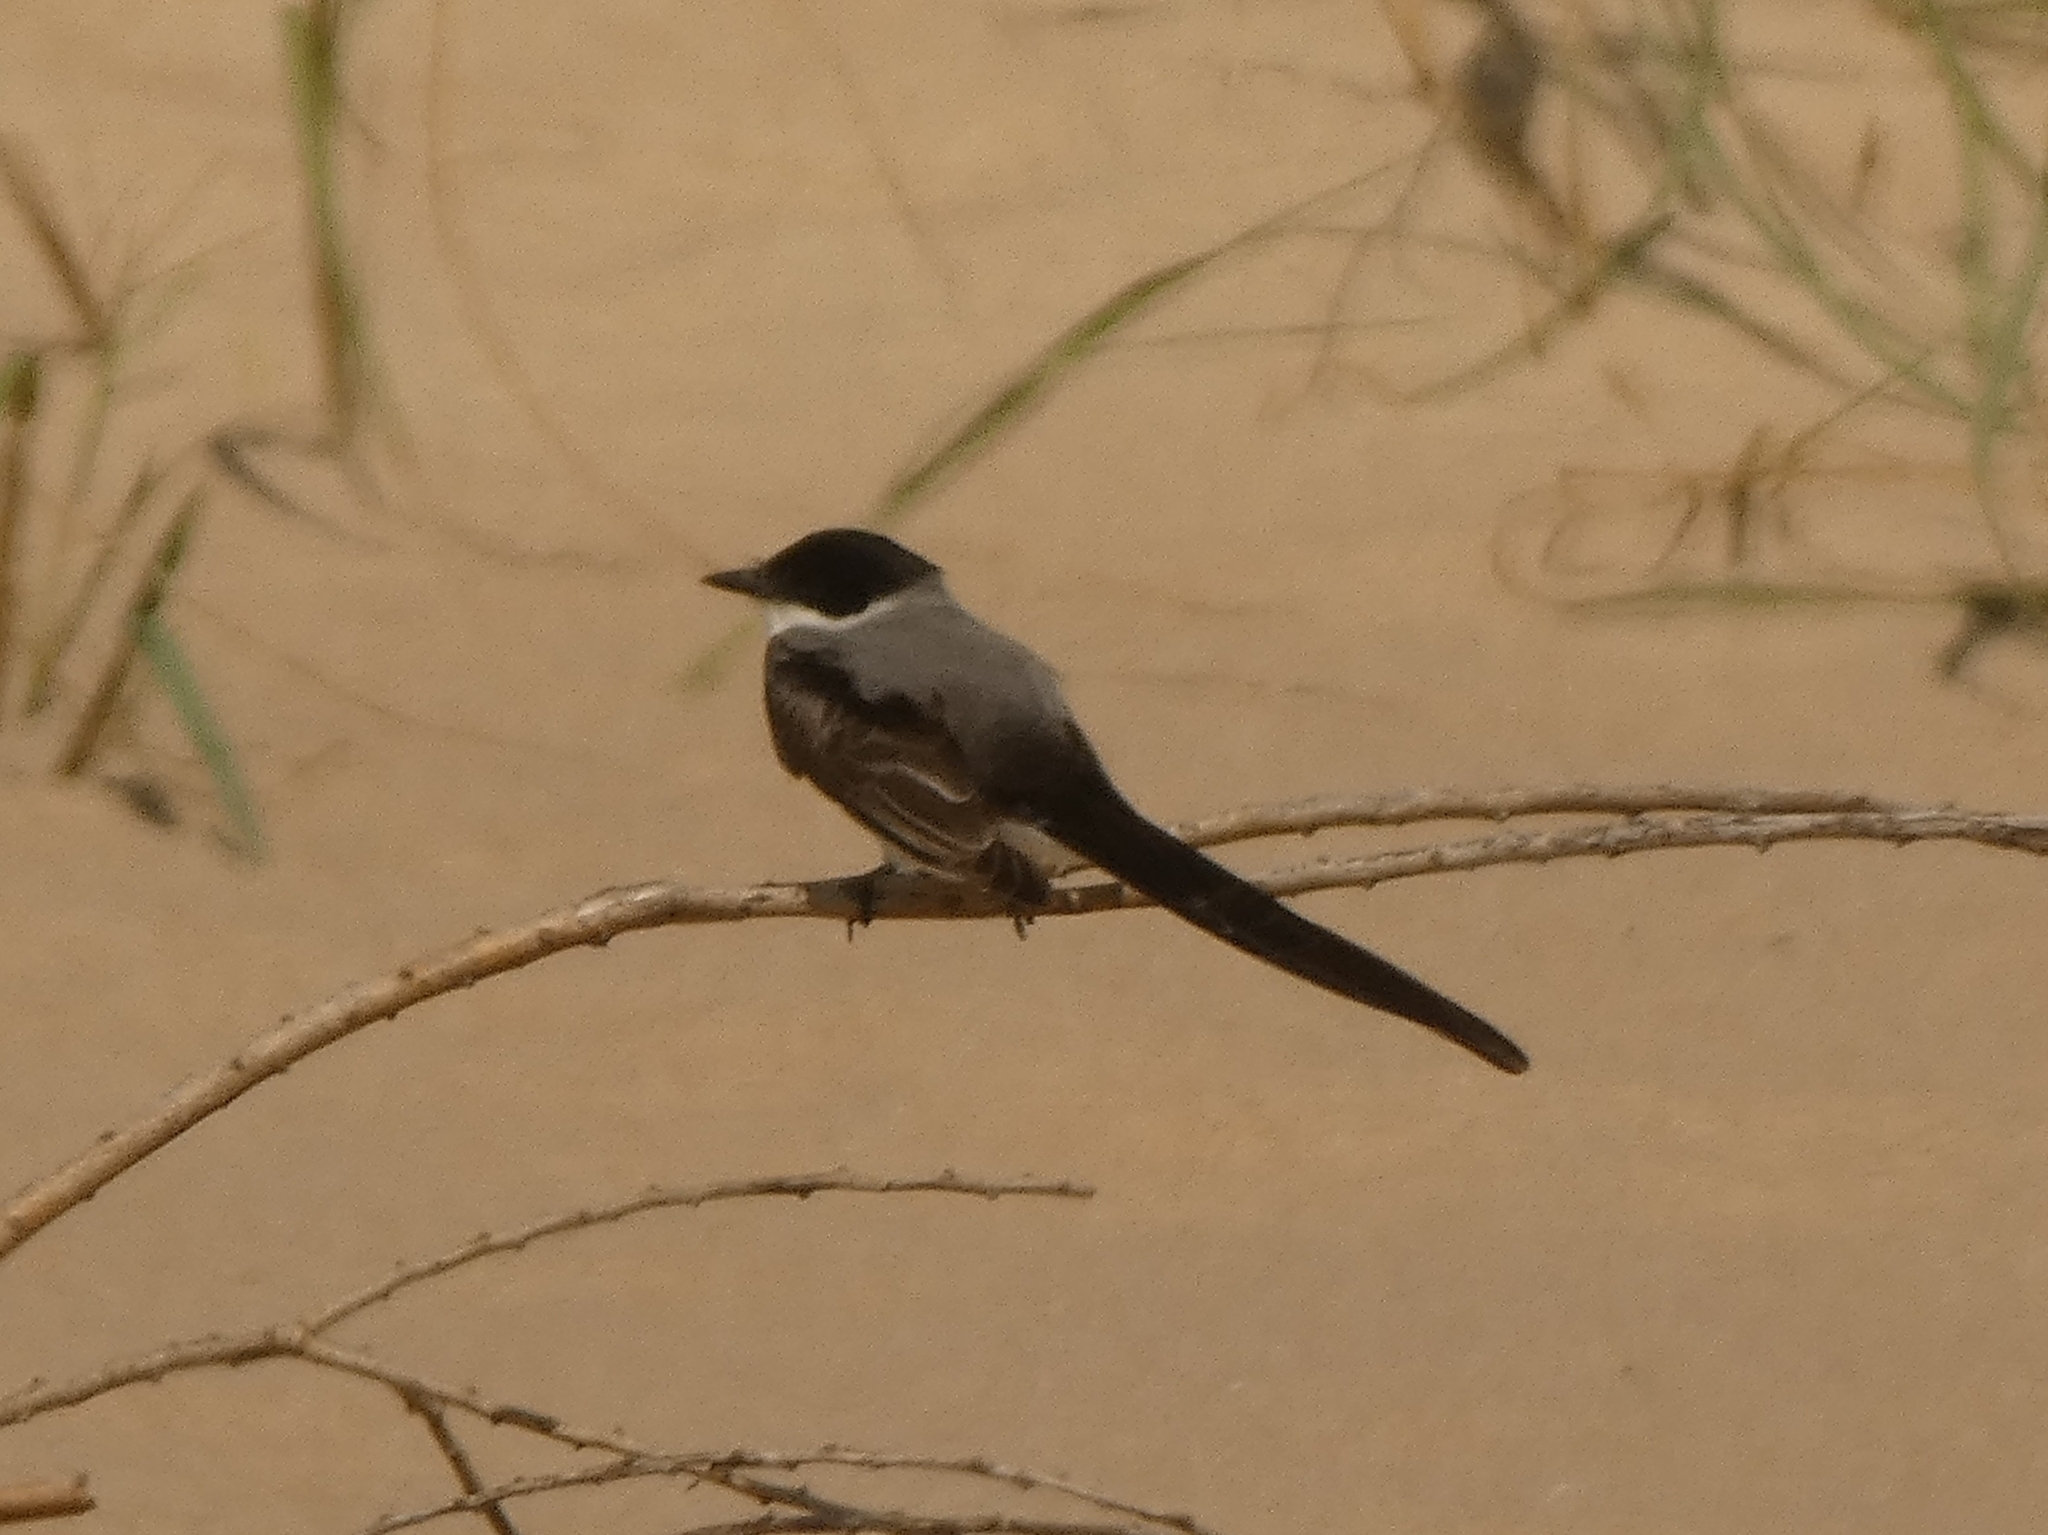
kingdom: Animalia
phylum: Chordata
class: Aves
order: Passeriformes
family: Tyrannidae
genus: Tyrannus
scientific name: Tyrannus savana
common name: Fork-tailed flycatcher
